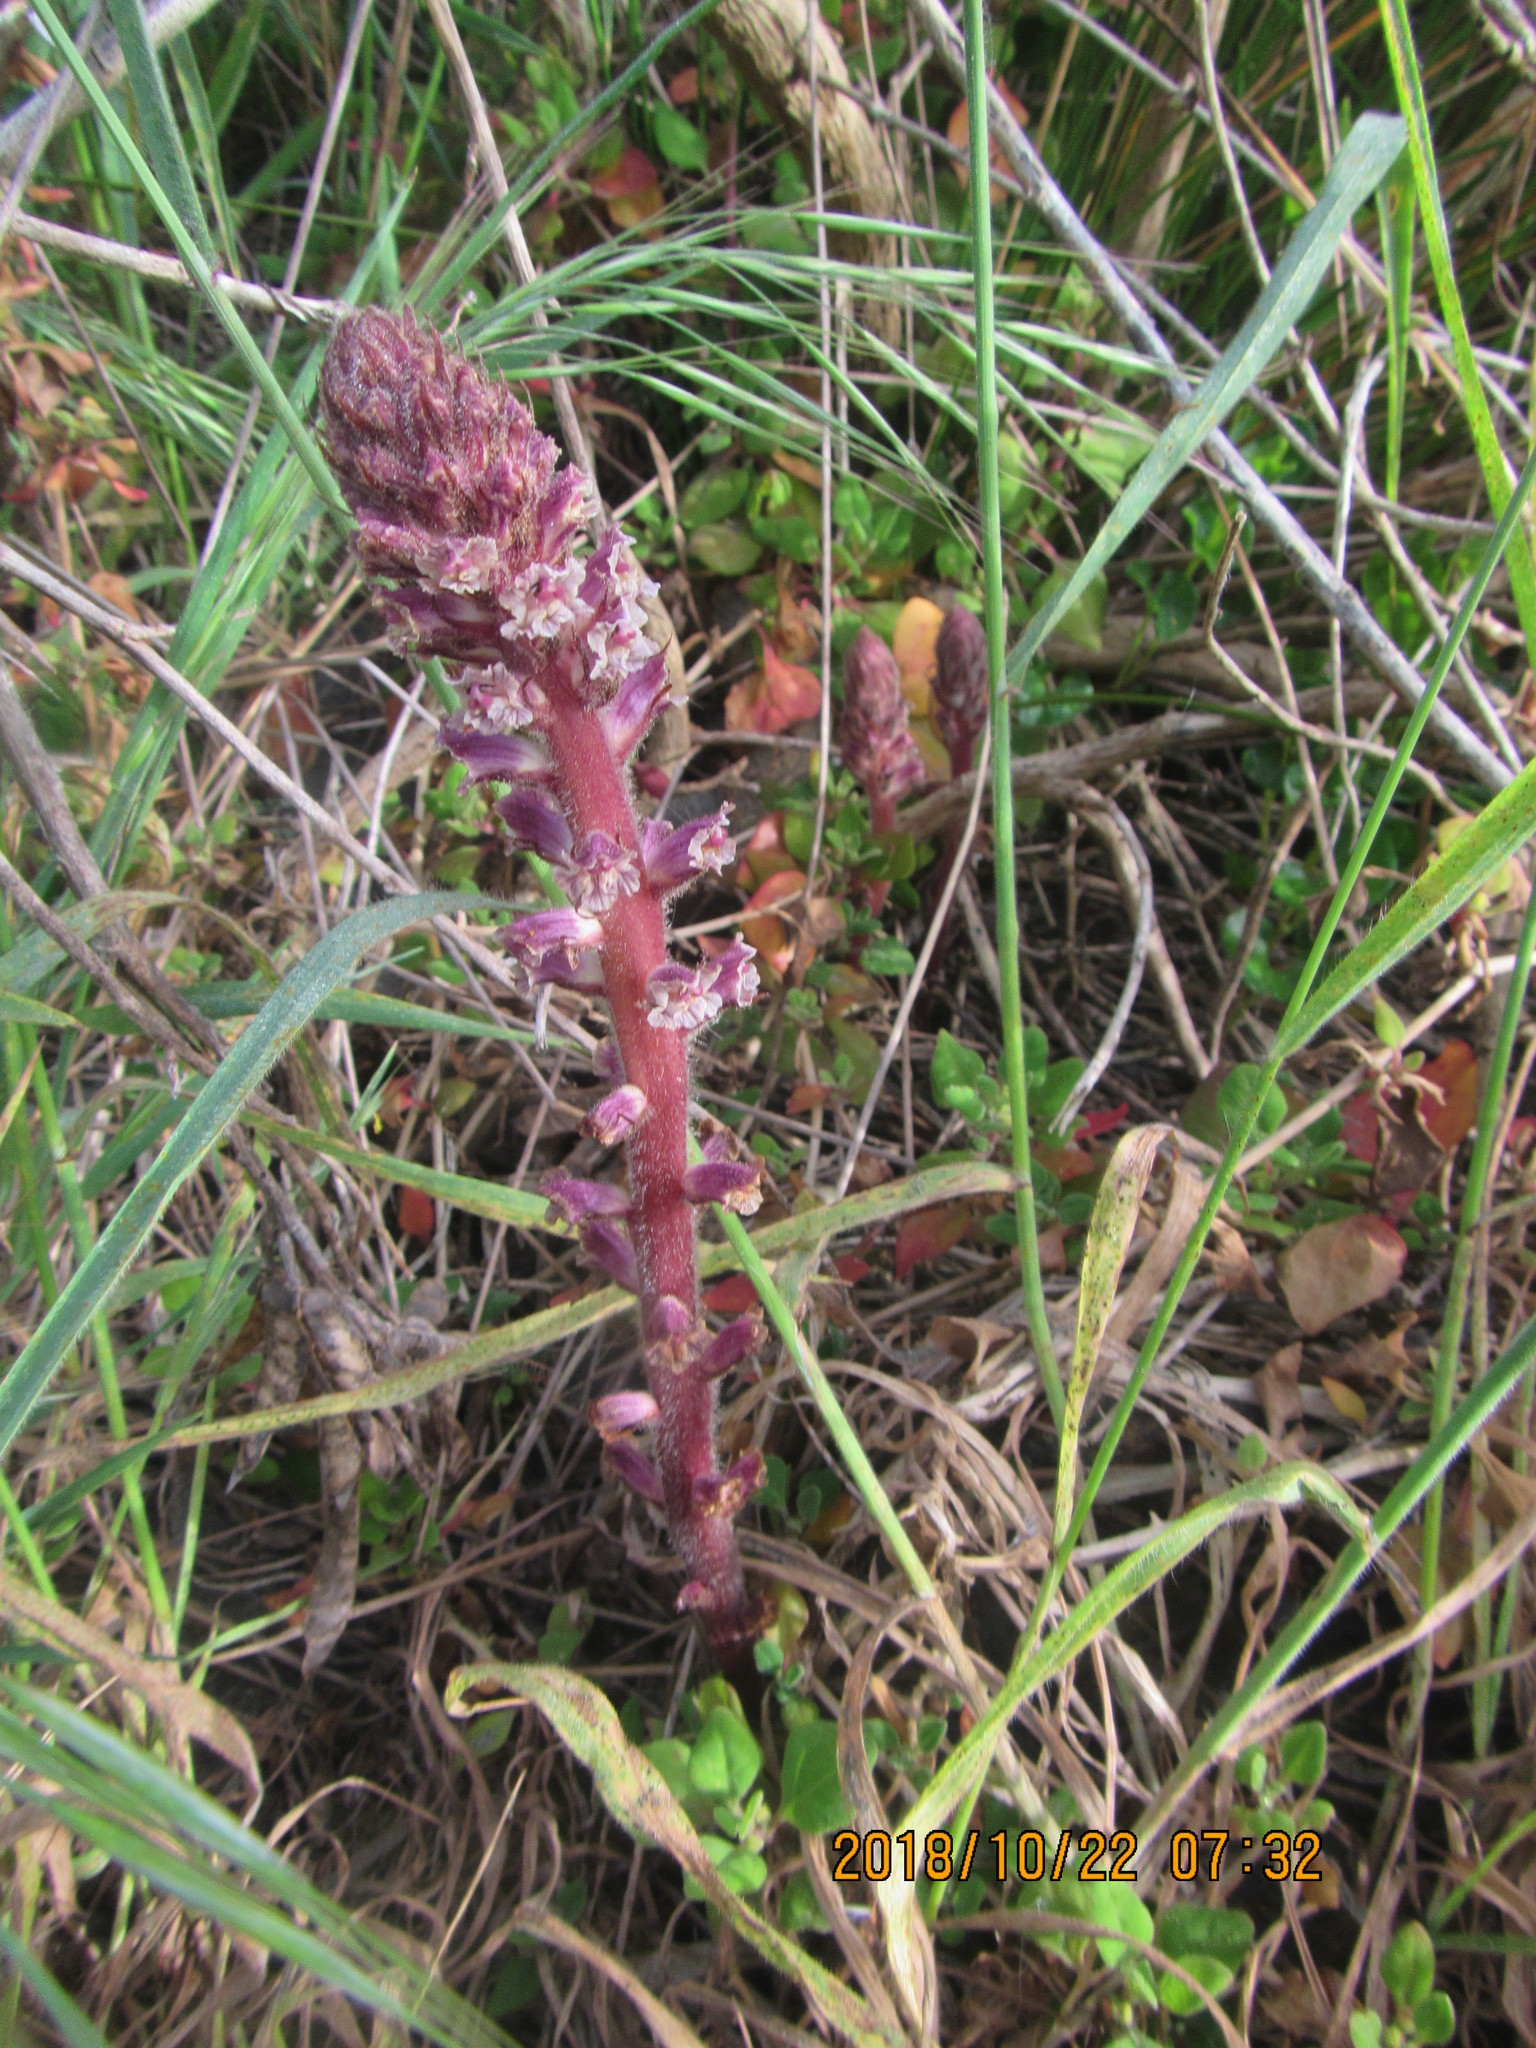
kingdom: Plantae
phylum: Tracheophyta
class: Magnoliopsida
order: Lamiales
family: Orobanchaceae
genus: Orobanche
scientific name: Orobanche minor
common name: Common broomrape
